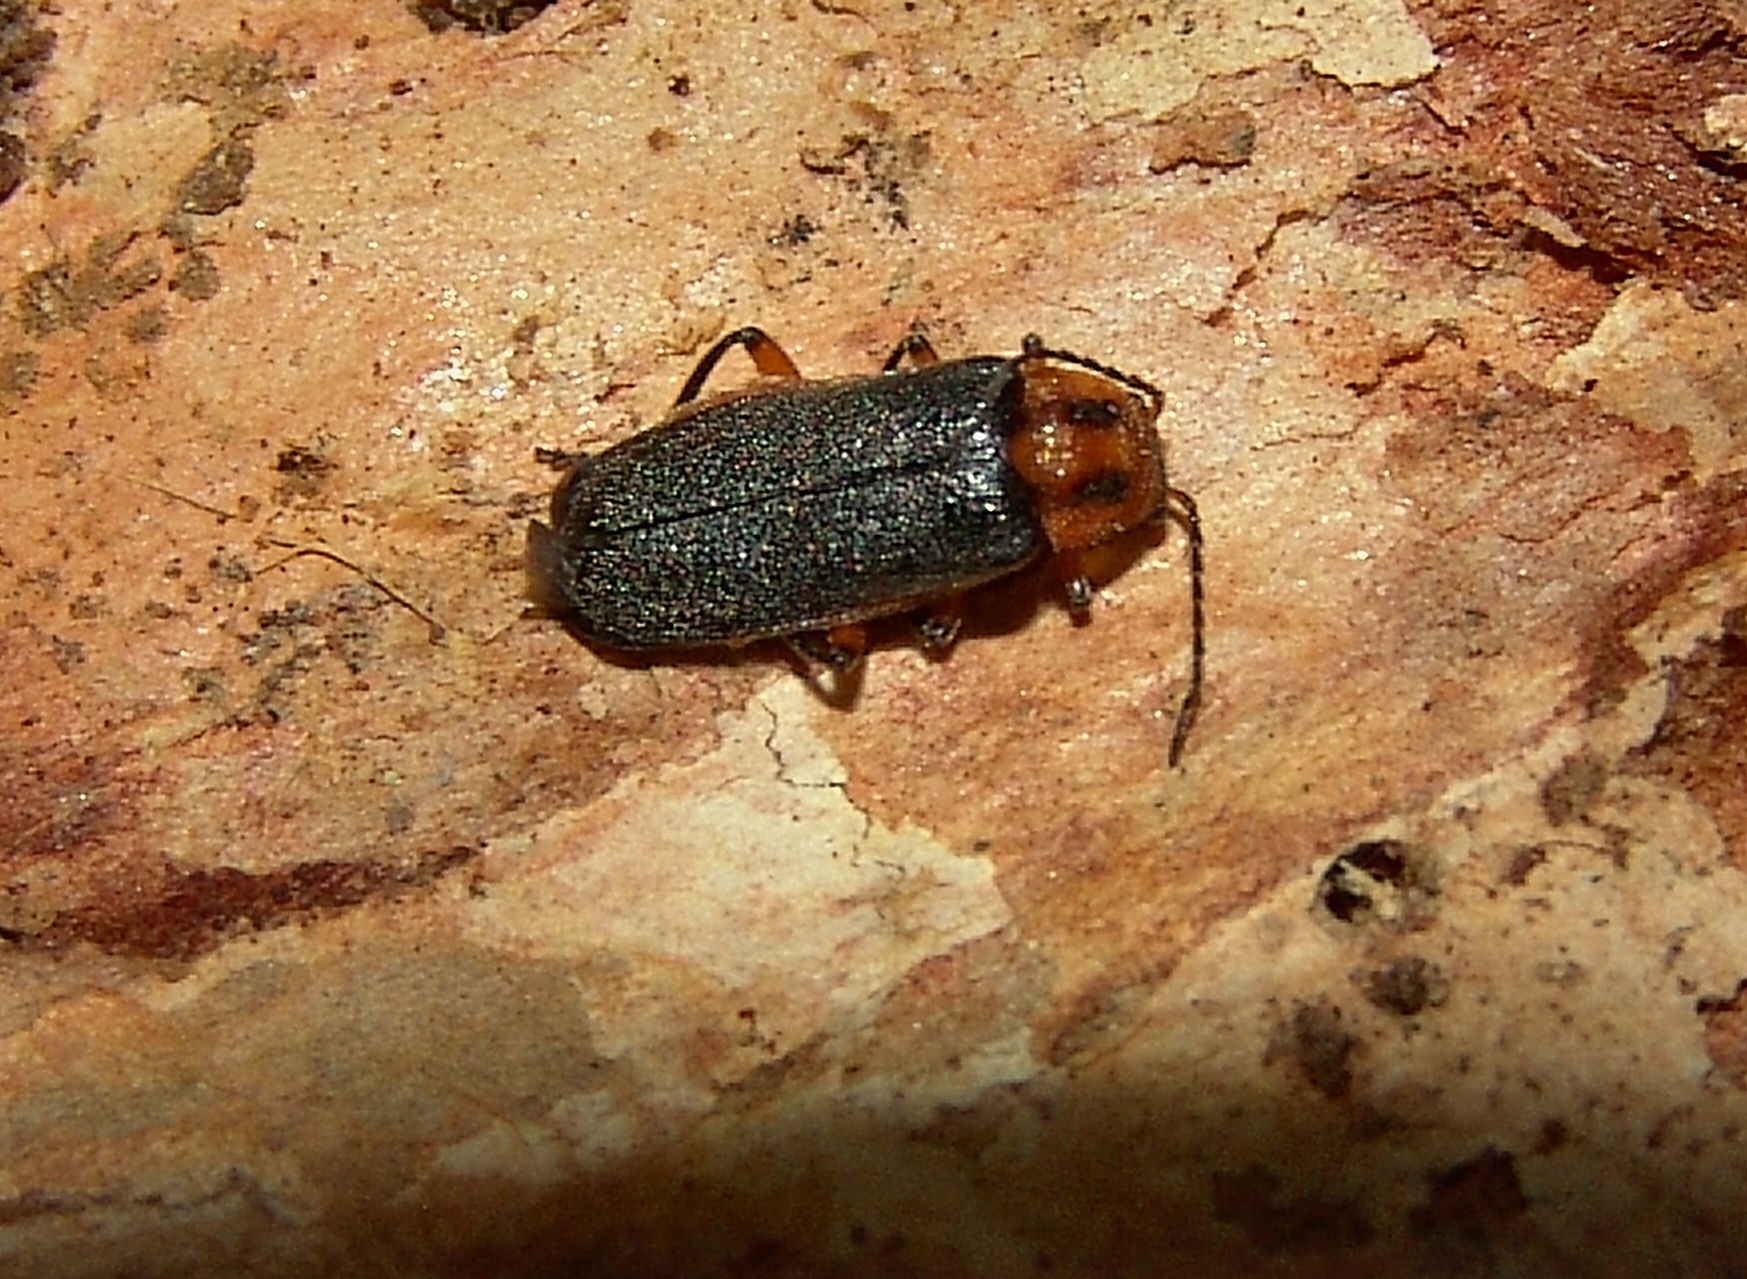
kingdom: Animalia
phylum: Arthropoda
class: Insecta
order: Coleoptera
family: Cantharidae
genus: Atalantycha
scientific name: Atalantycha bilineata
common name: Two-lined leatherwing
